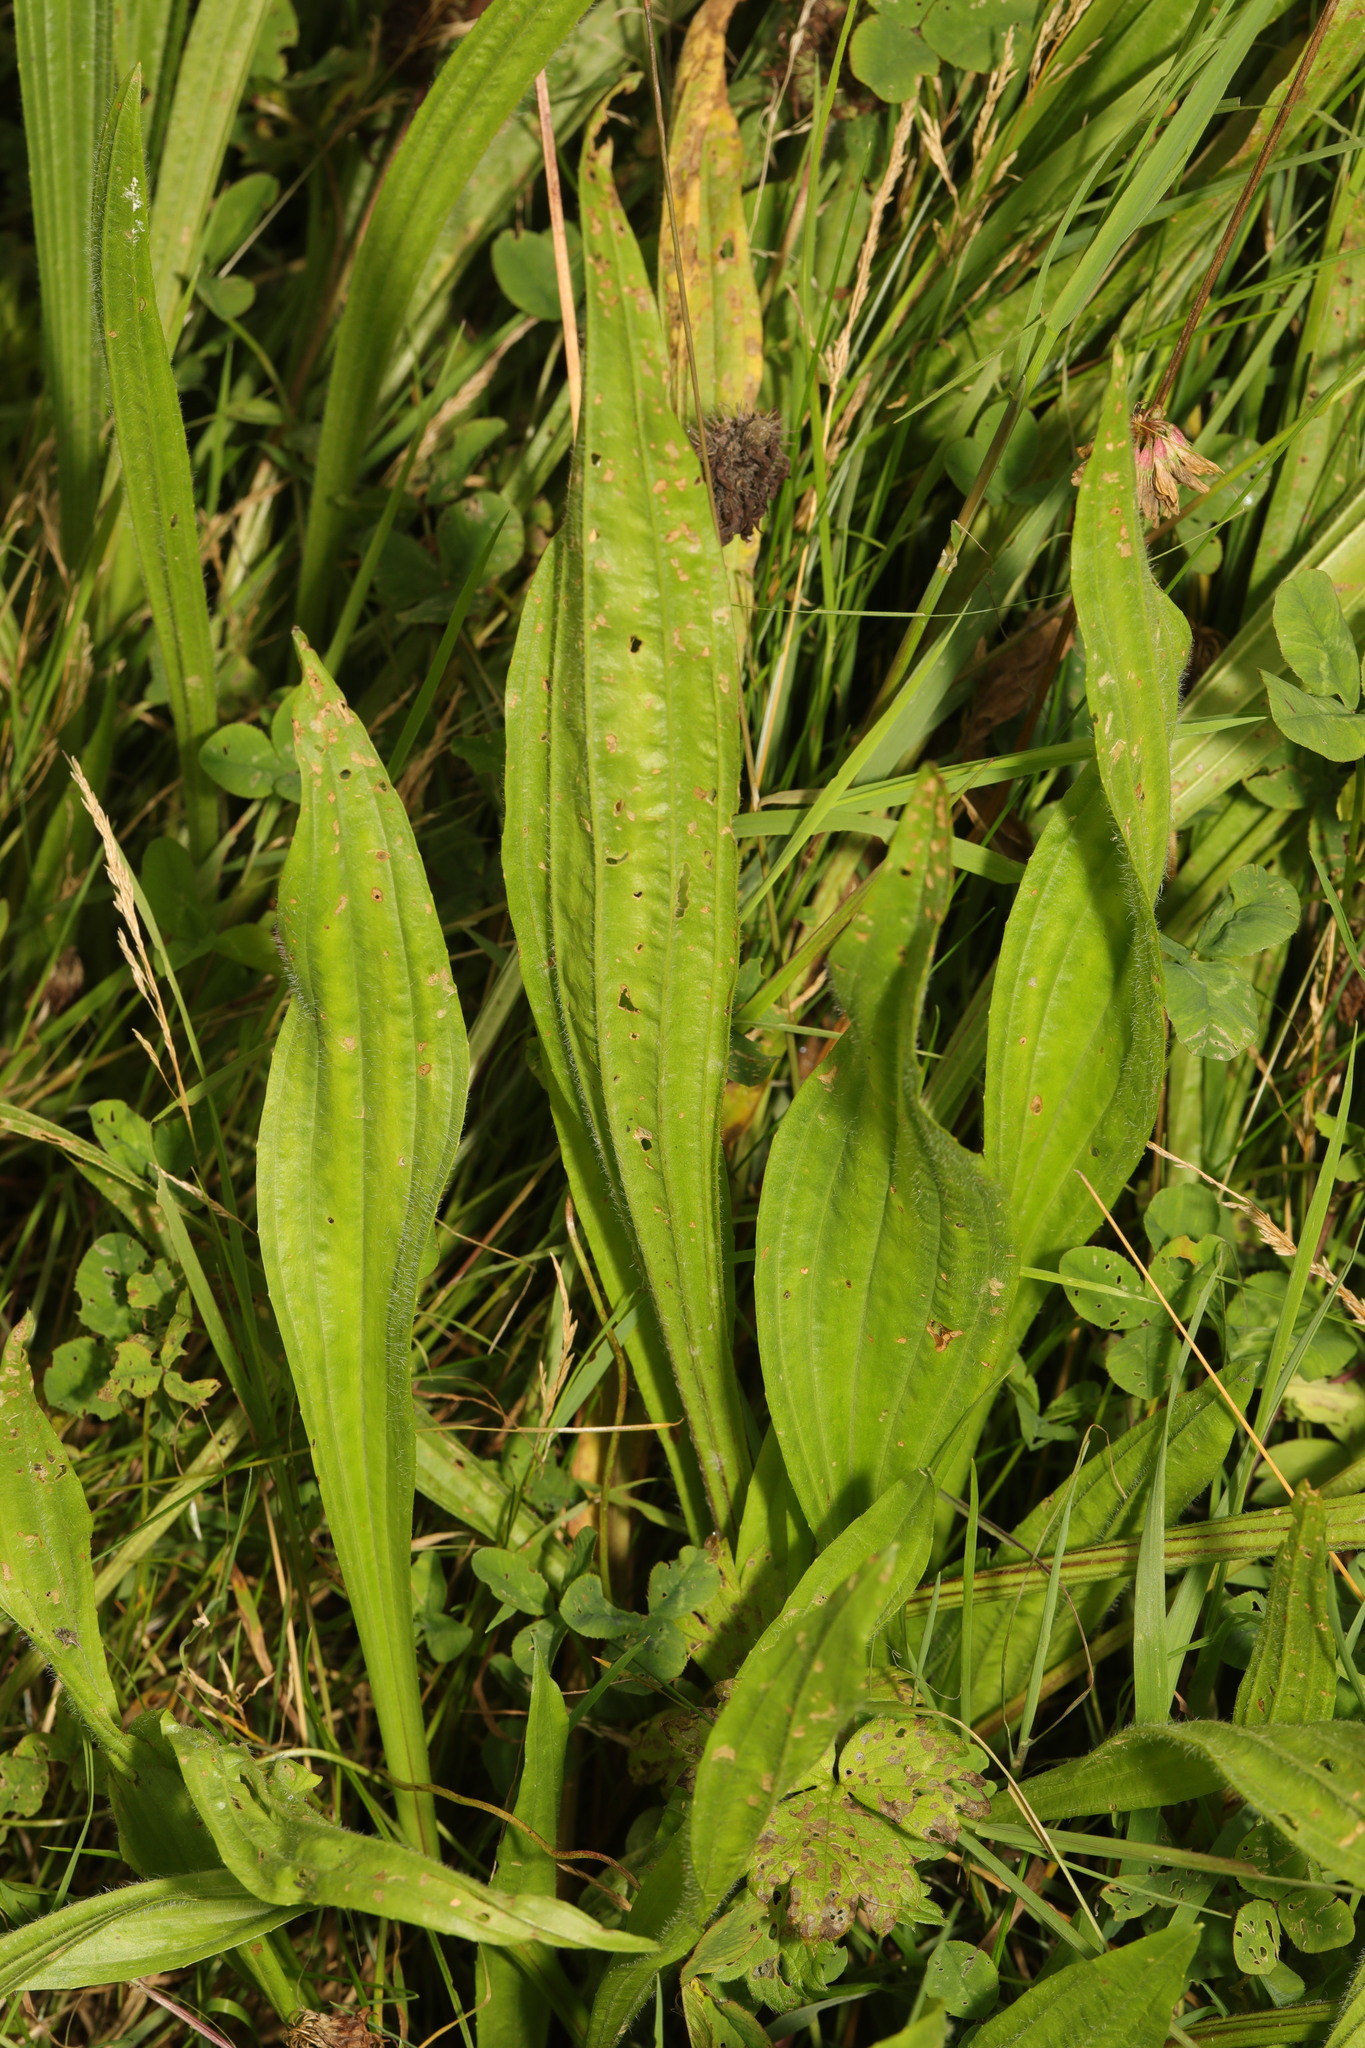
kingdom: Plantae
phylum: Tracheophyta
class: Magnoliopsida
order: Lamiales
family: Plantaginaceae
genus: Plantago
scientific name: Plantago lanceolata
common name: Ribwort plantain
